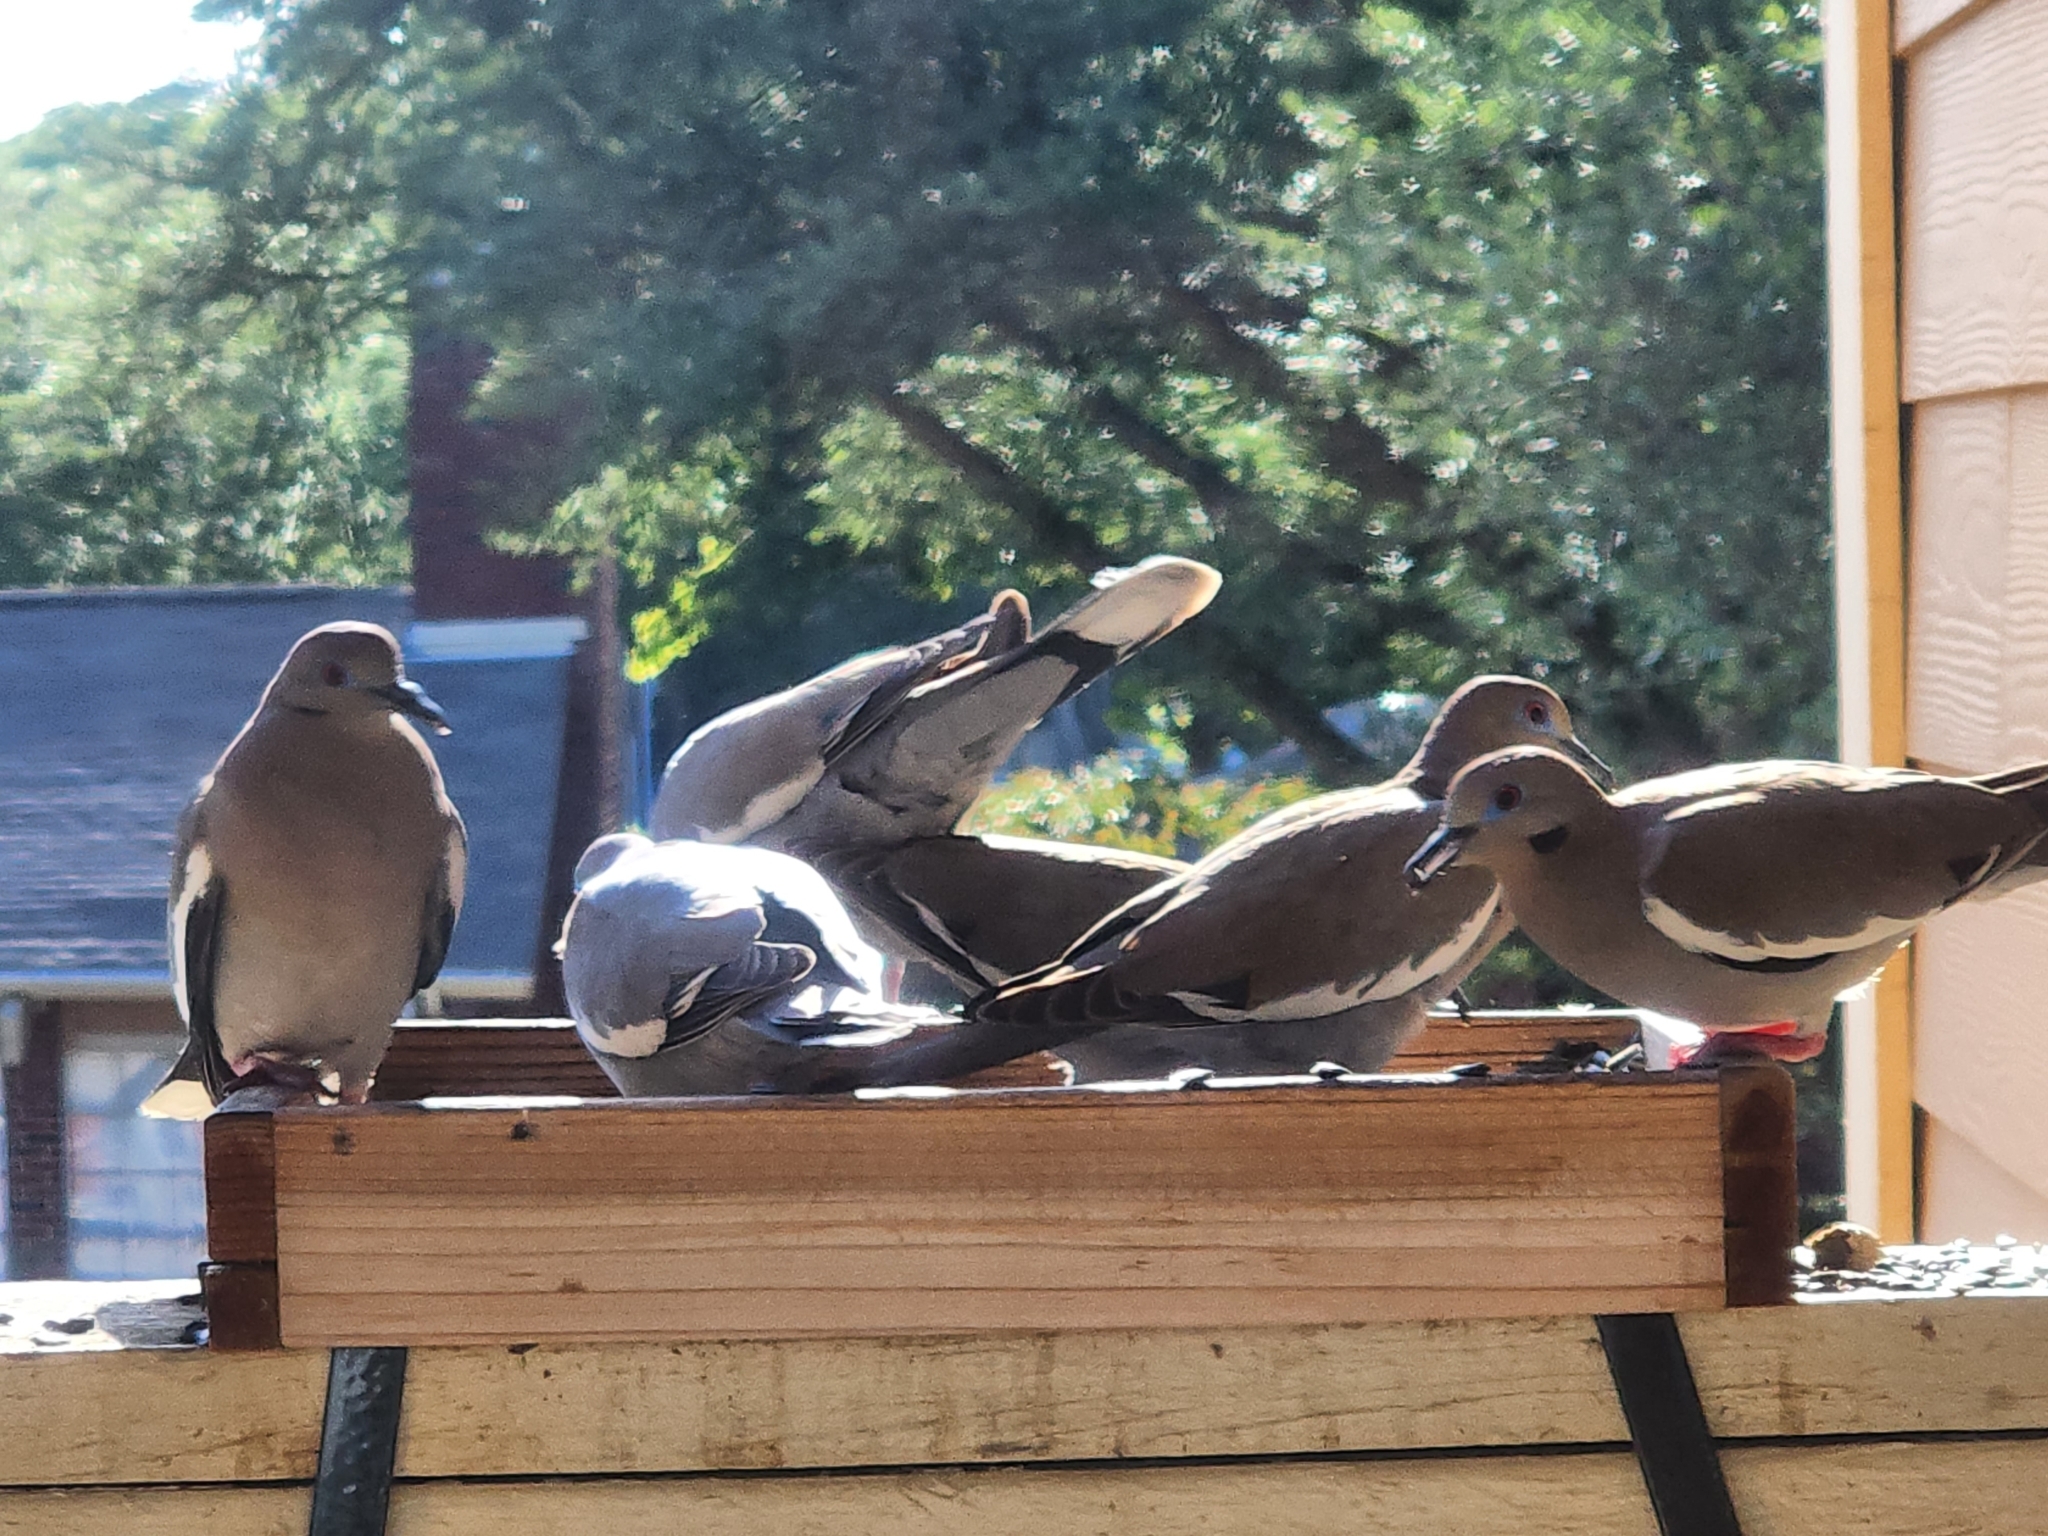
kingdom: Animalia
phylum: Chordata
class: Aves
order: Columbiformes
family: Columbidae
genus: Zenaida
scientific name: Zenaida asiatica
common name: White-winged dove
